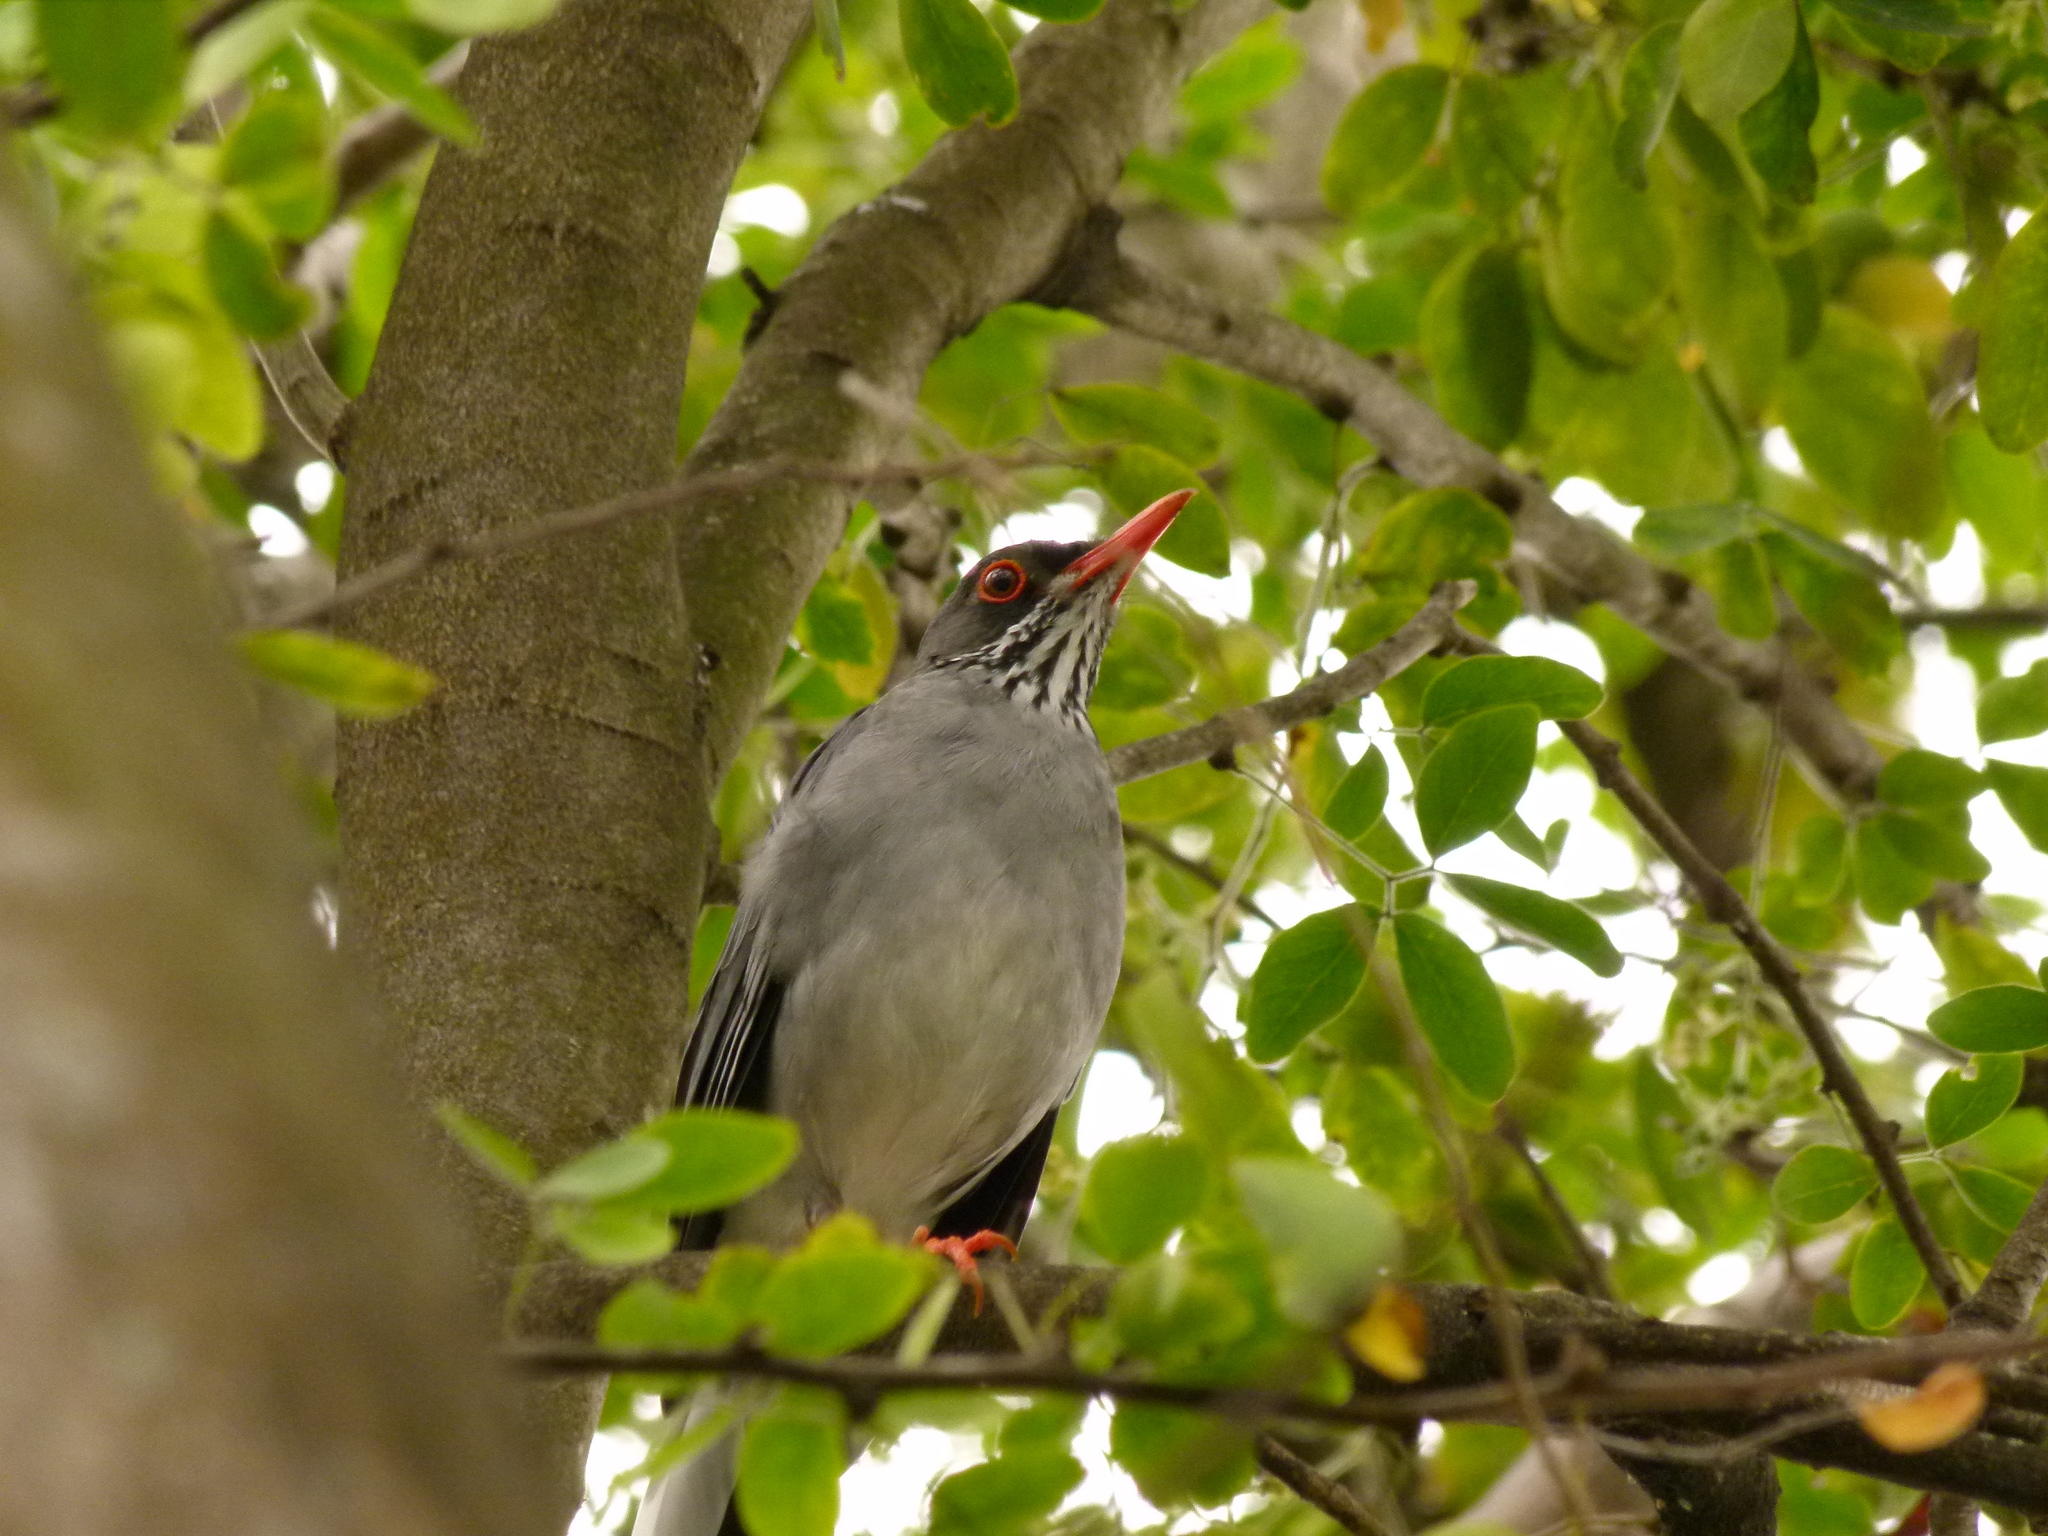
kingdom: Animalia
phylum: Chordata
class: Aves
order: Passeriformes
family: Turdidae
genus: Turdus
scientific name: Turdus plumbeus
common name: Red-legged thrush
